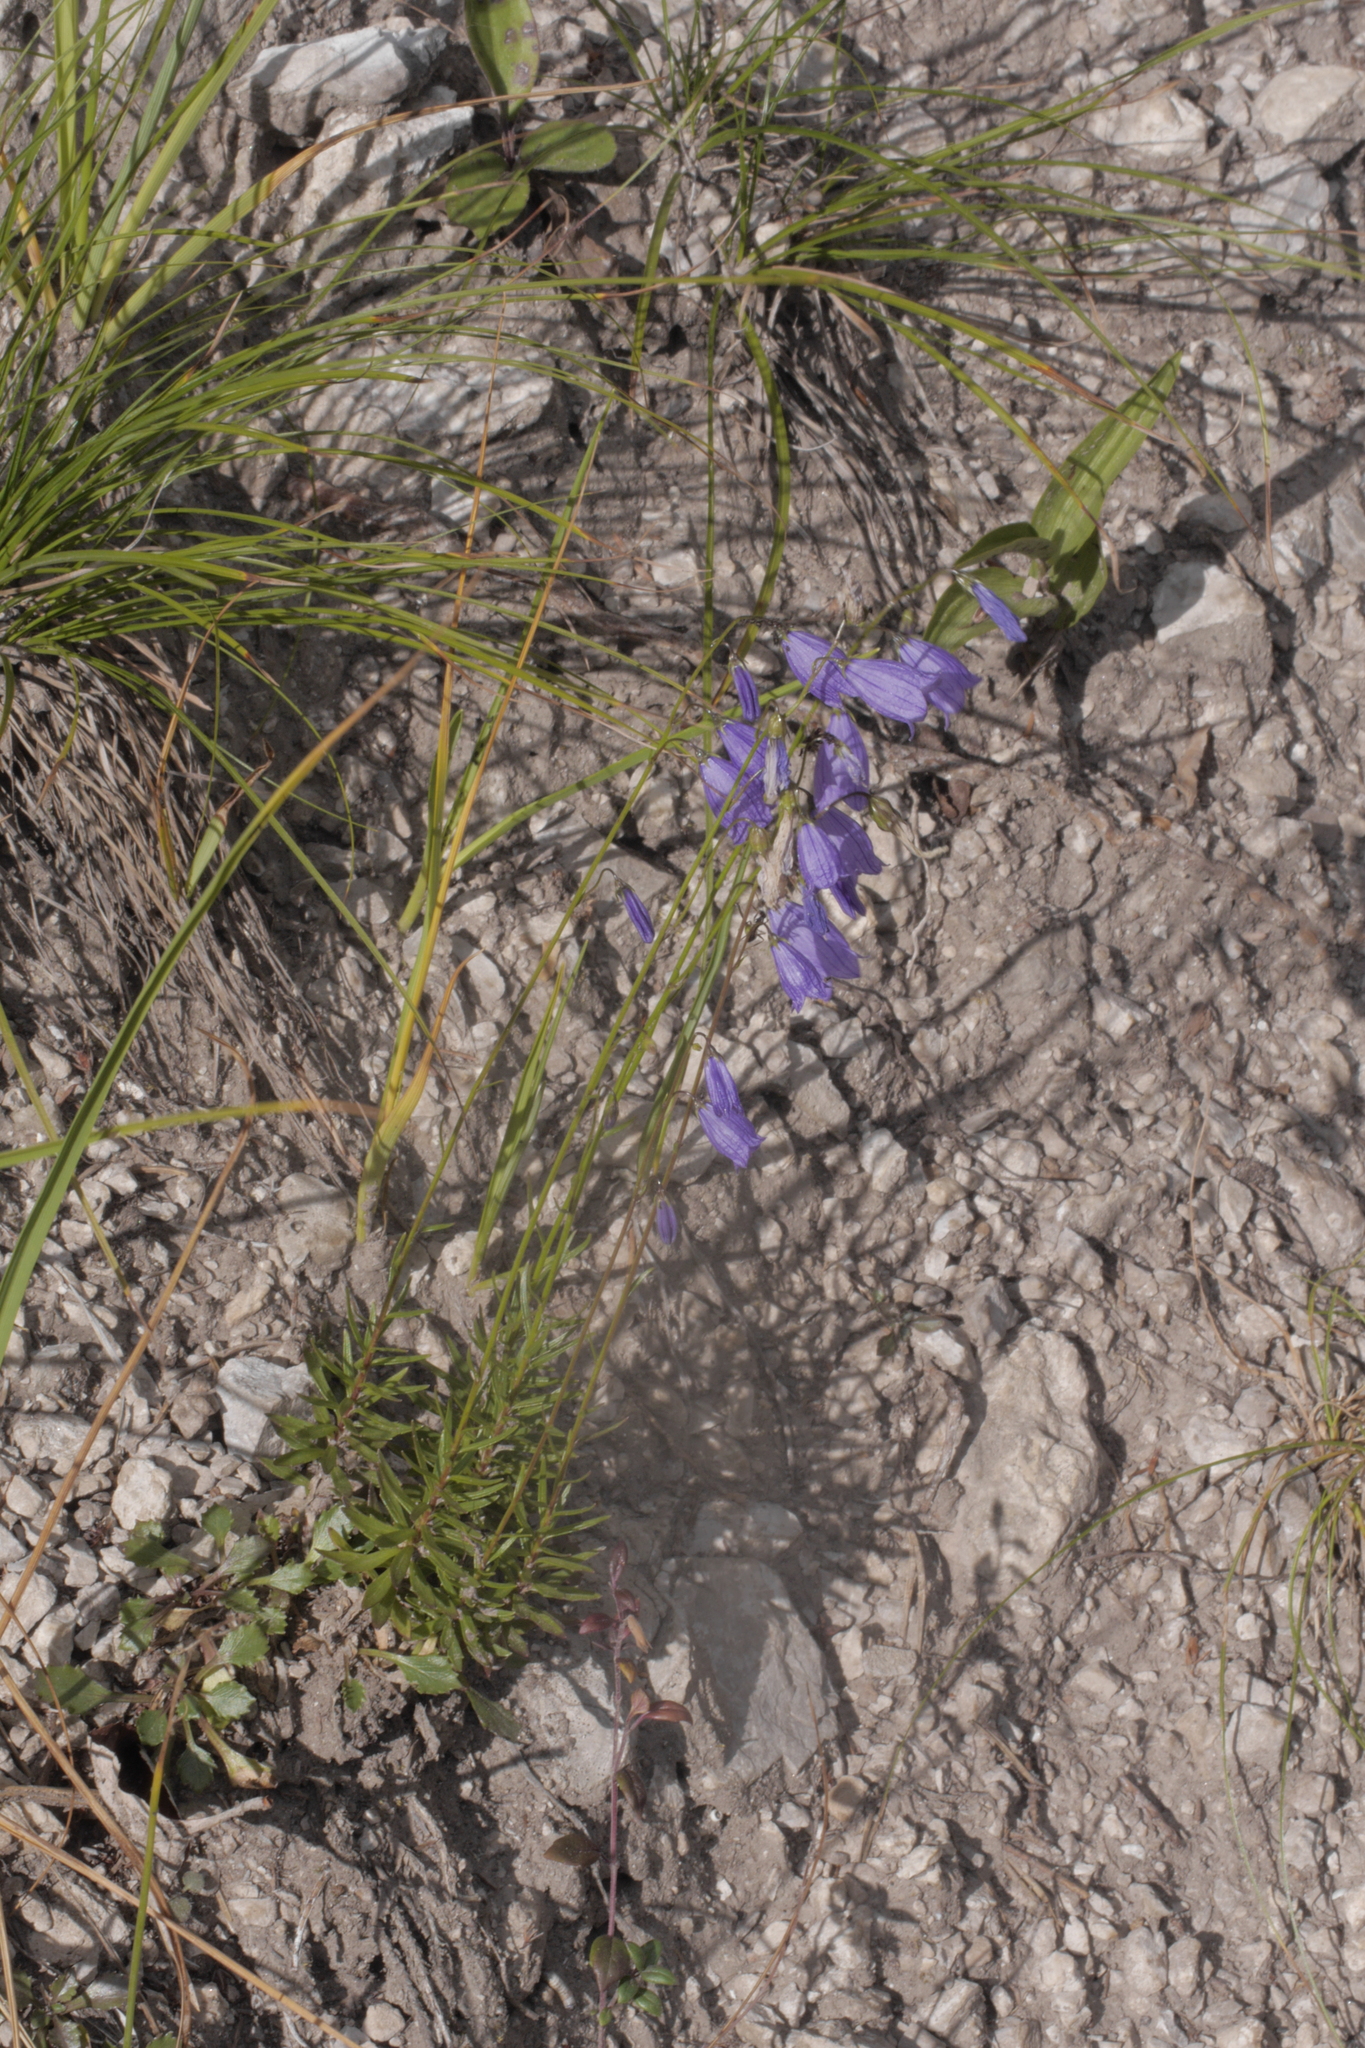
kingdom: Plantae
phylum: Tracheophyta
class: Magnoliopsida
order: Asterales
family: Campanulaceae
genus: Campanula
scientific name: Campanula cespitosa
